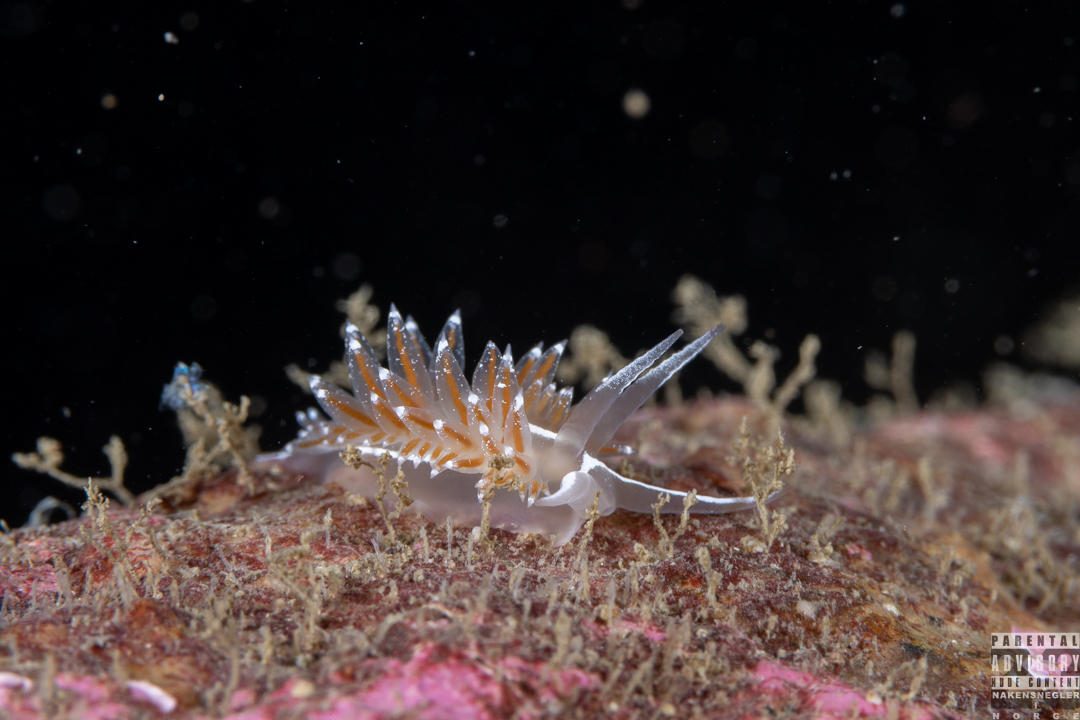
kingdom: Animalia
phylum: Mollusca
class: Gastropoda
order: Nudibranchia
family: Coryphellidae
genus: Coryphella
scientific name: Coryphella monicae
